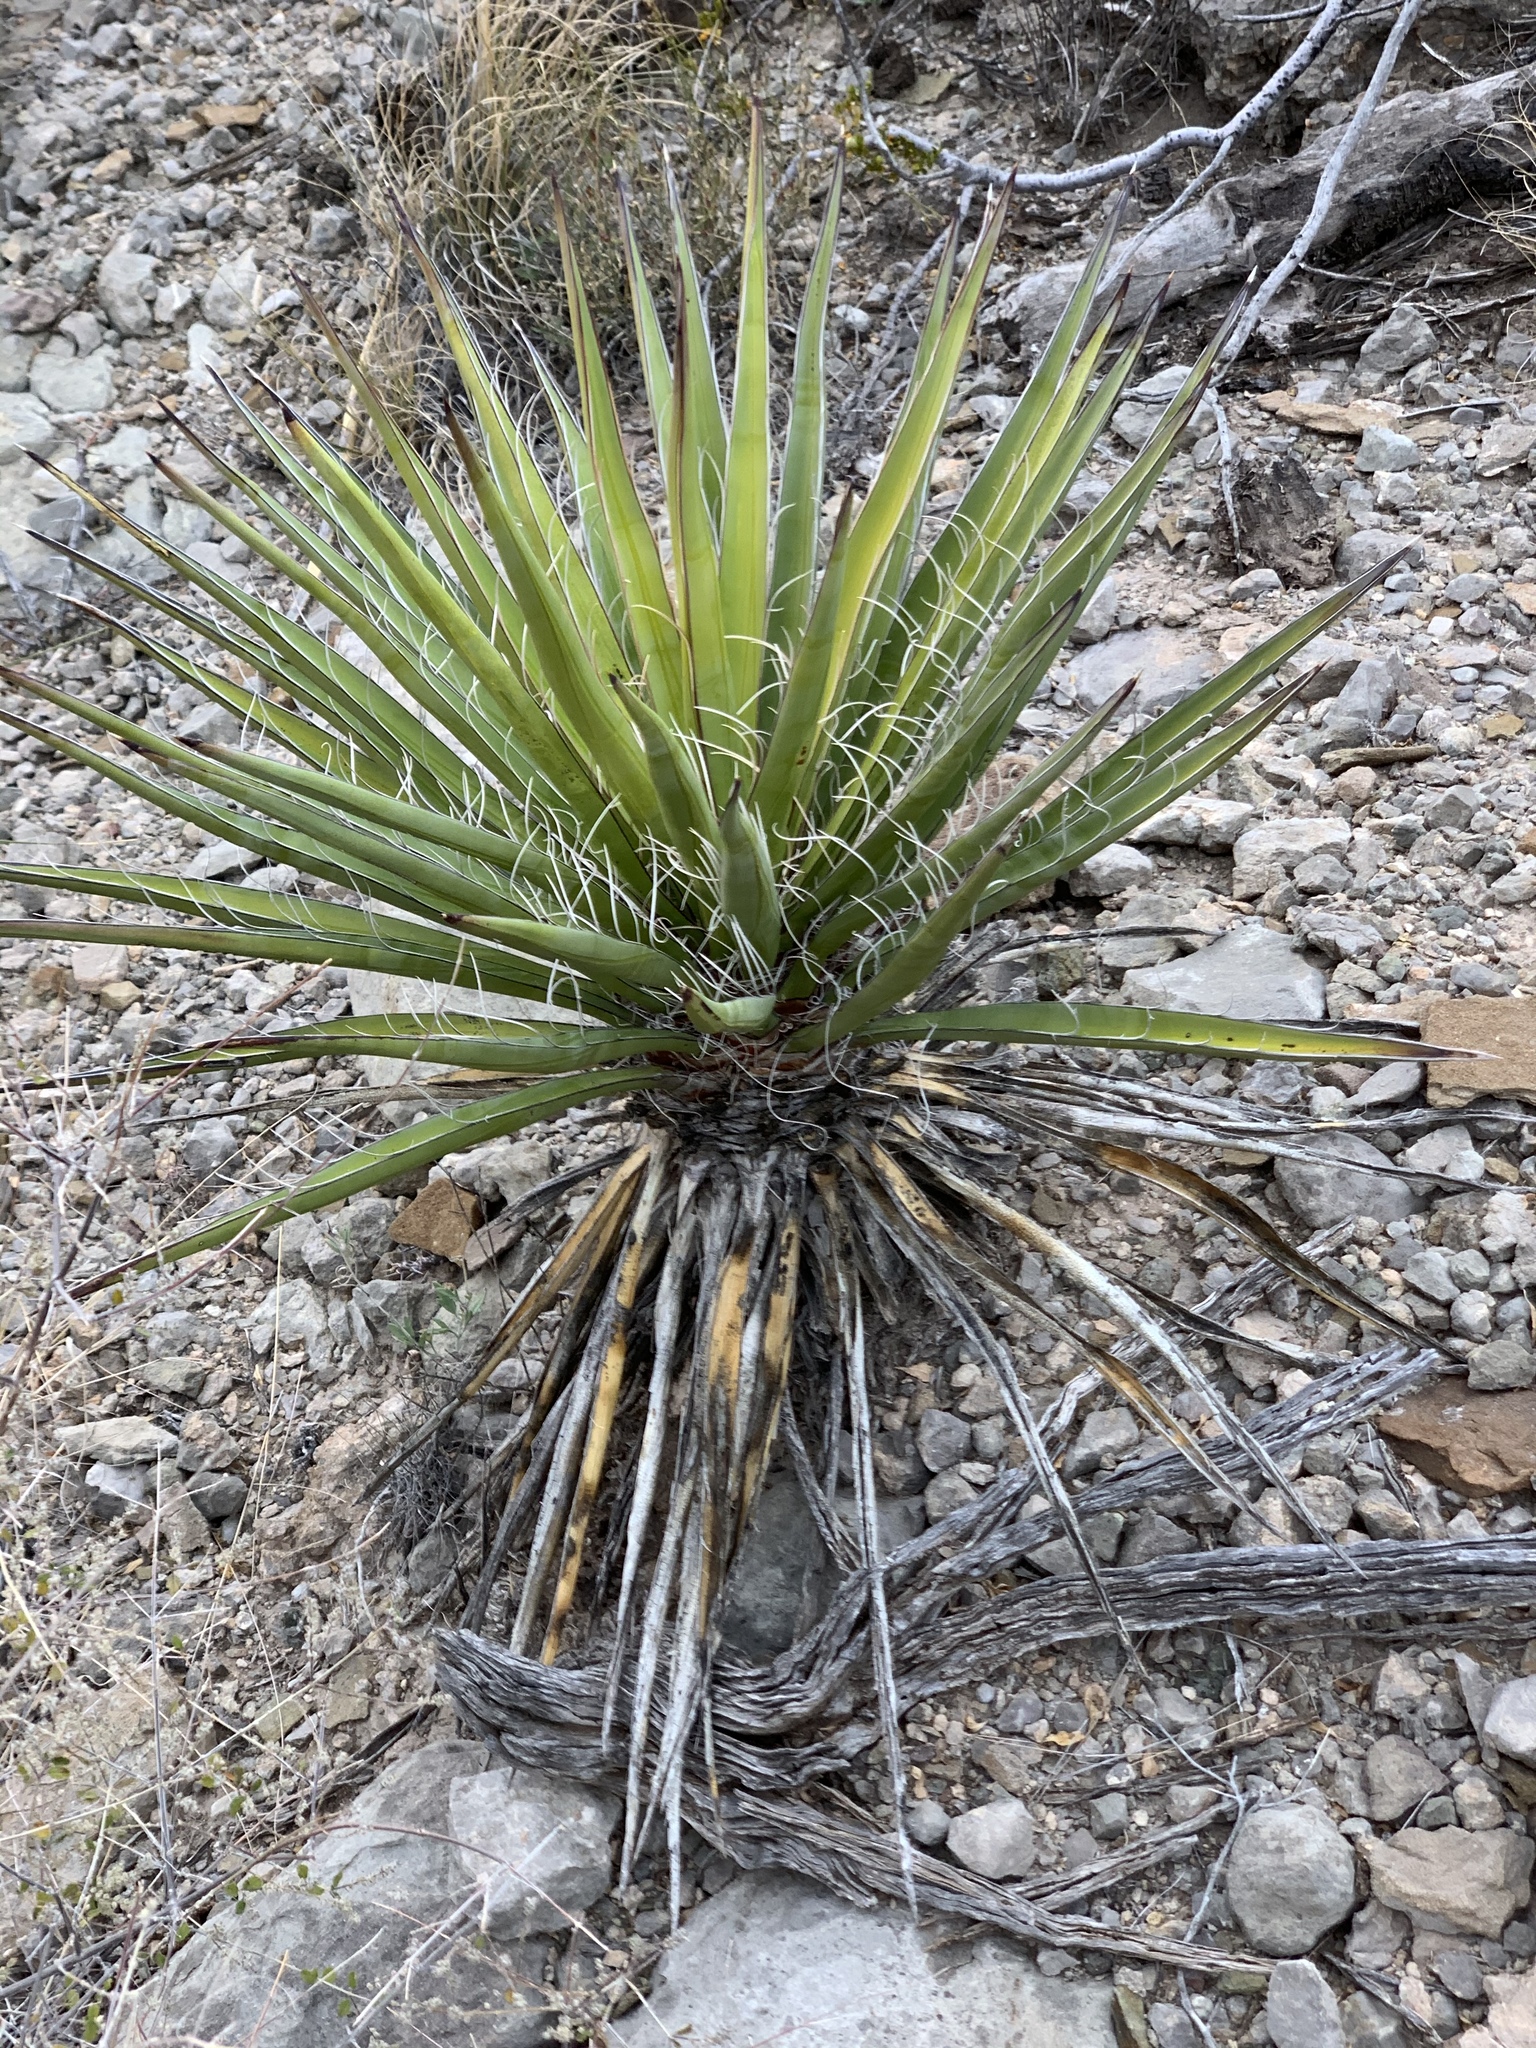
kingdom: Plantae
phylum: Tracheophyta
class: Liliopsida
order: Asparagales
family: Asparagaceae
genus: Yucca
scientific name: Yucca treculiana
